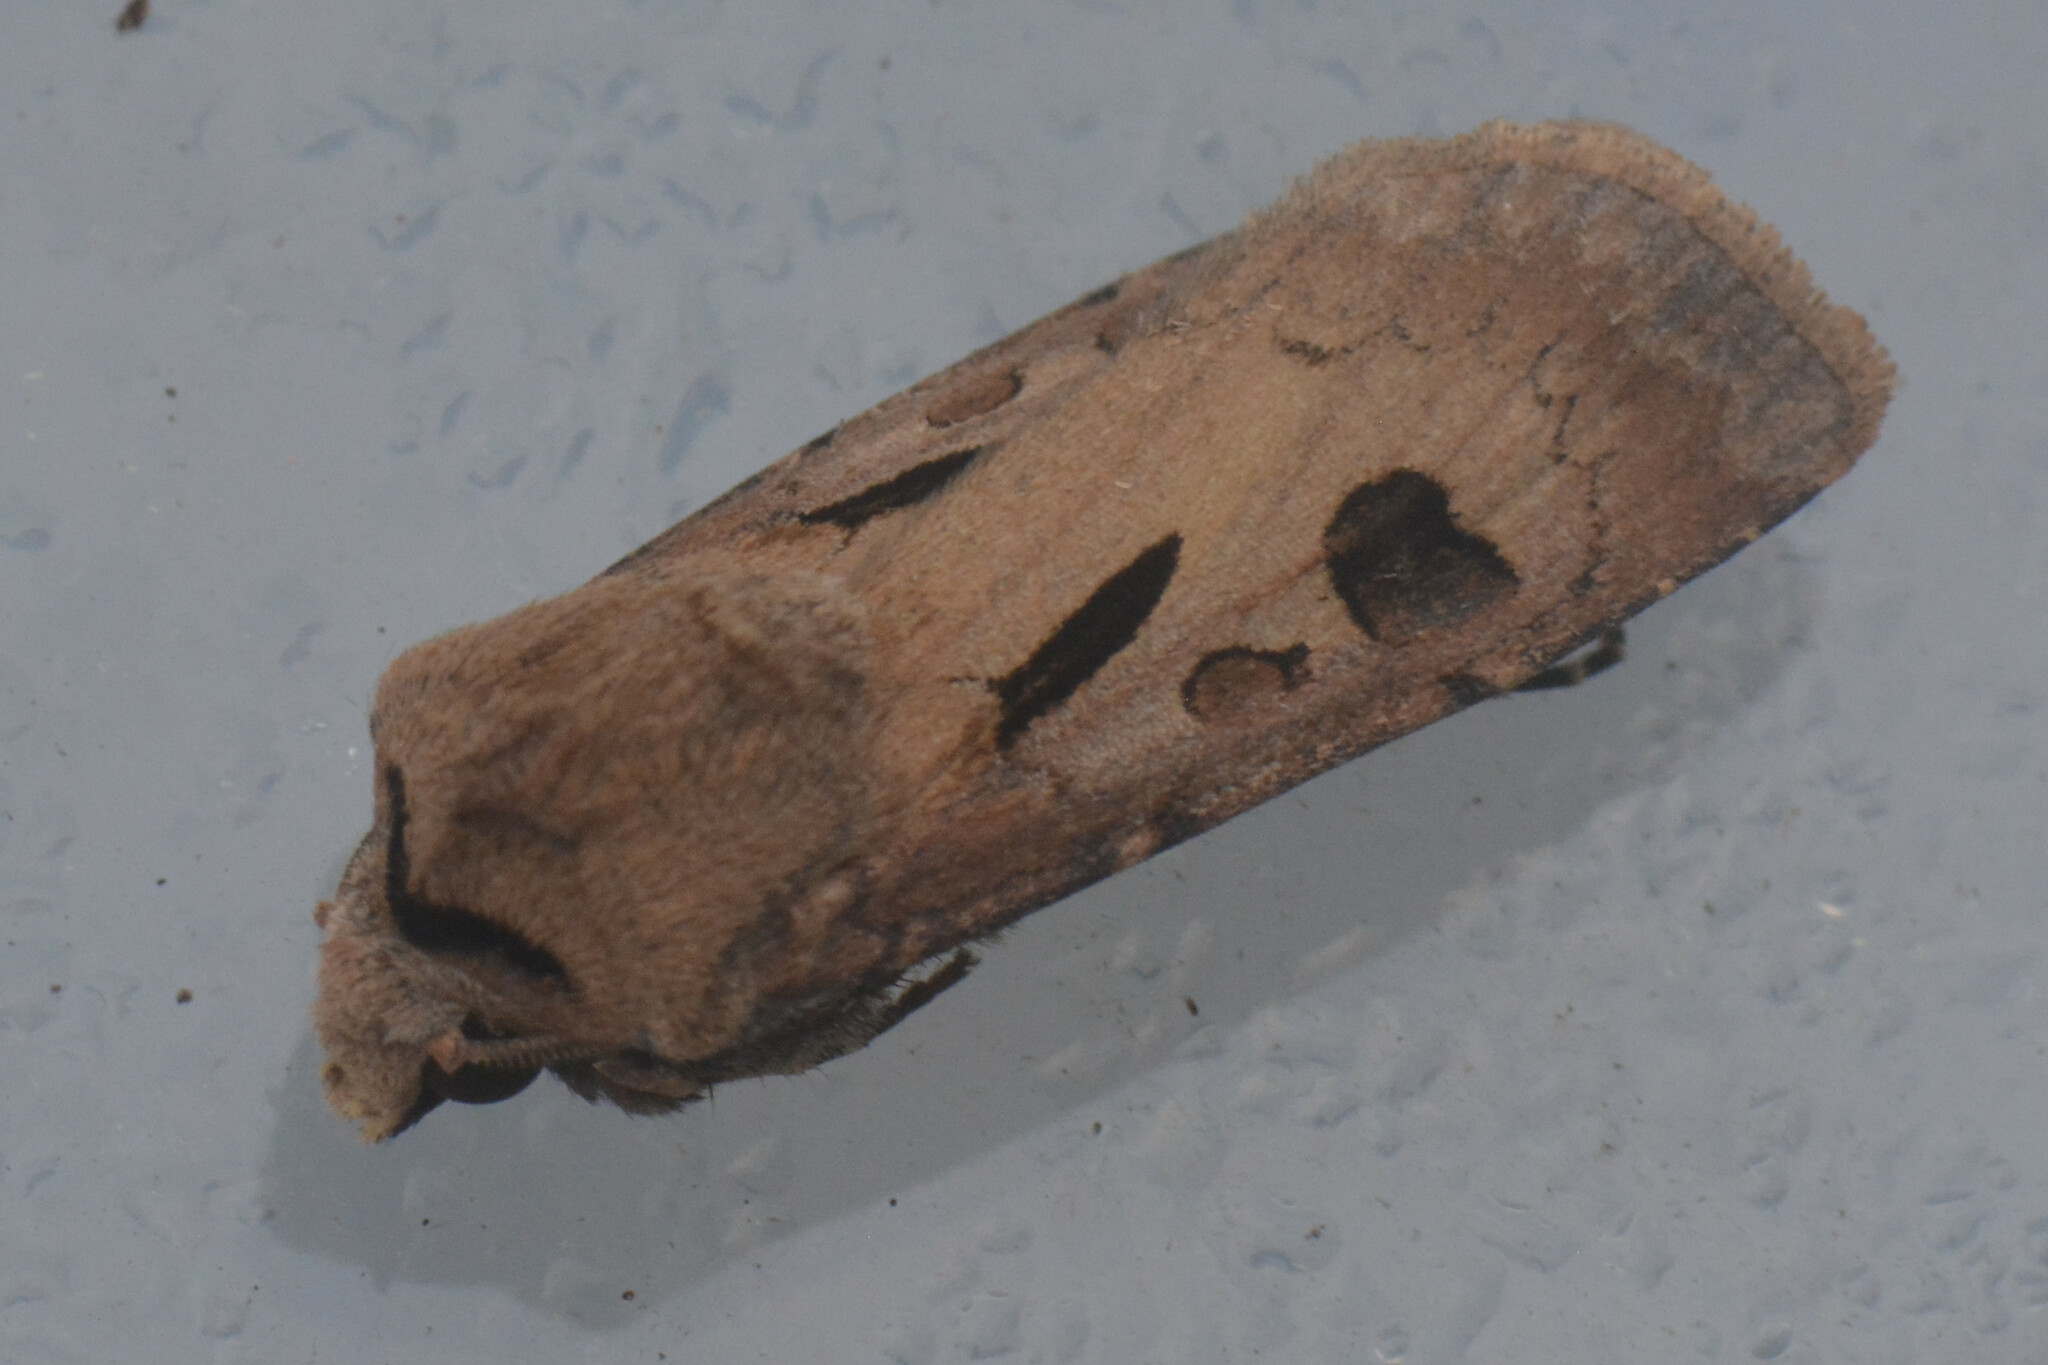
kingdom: Animalia
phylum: Arthropoda
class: Insecta
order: Lepidoptera
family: Noctuidae
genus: Agrotis
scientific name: Agrotis exclamationis
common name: Heart and dart
